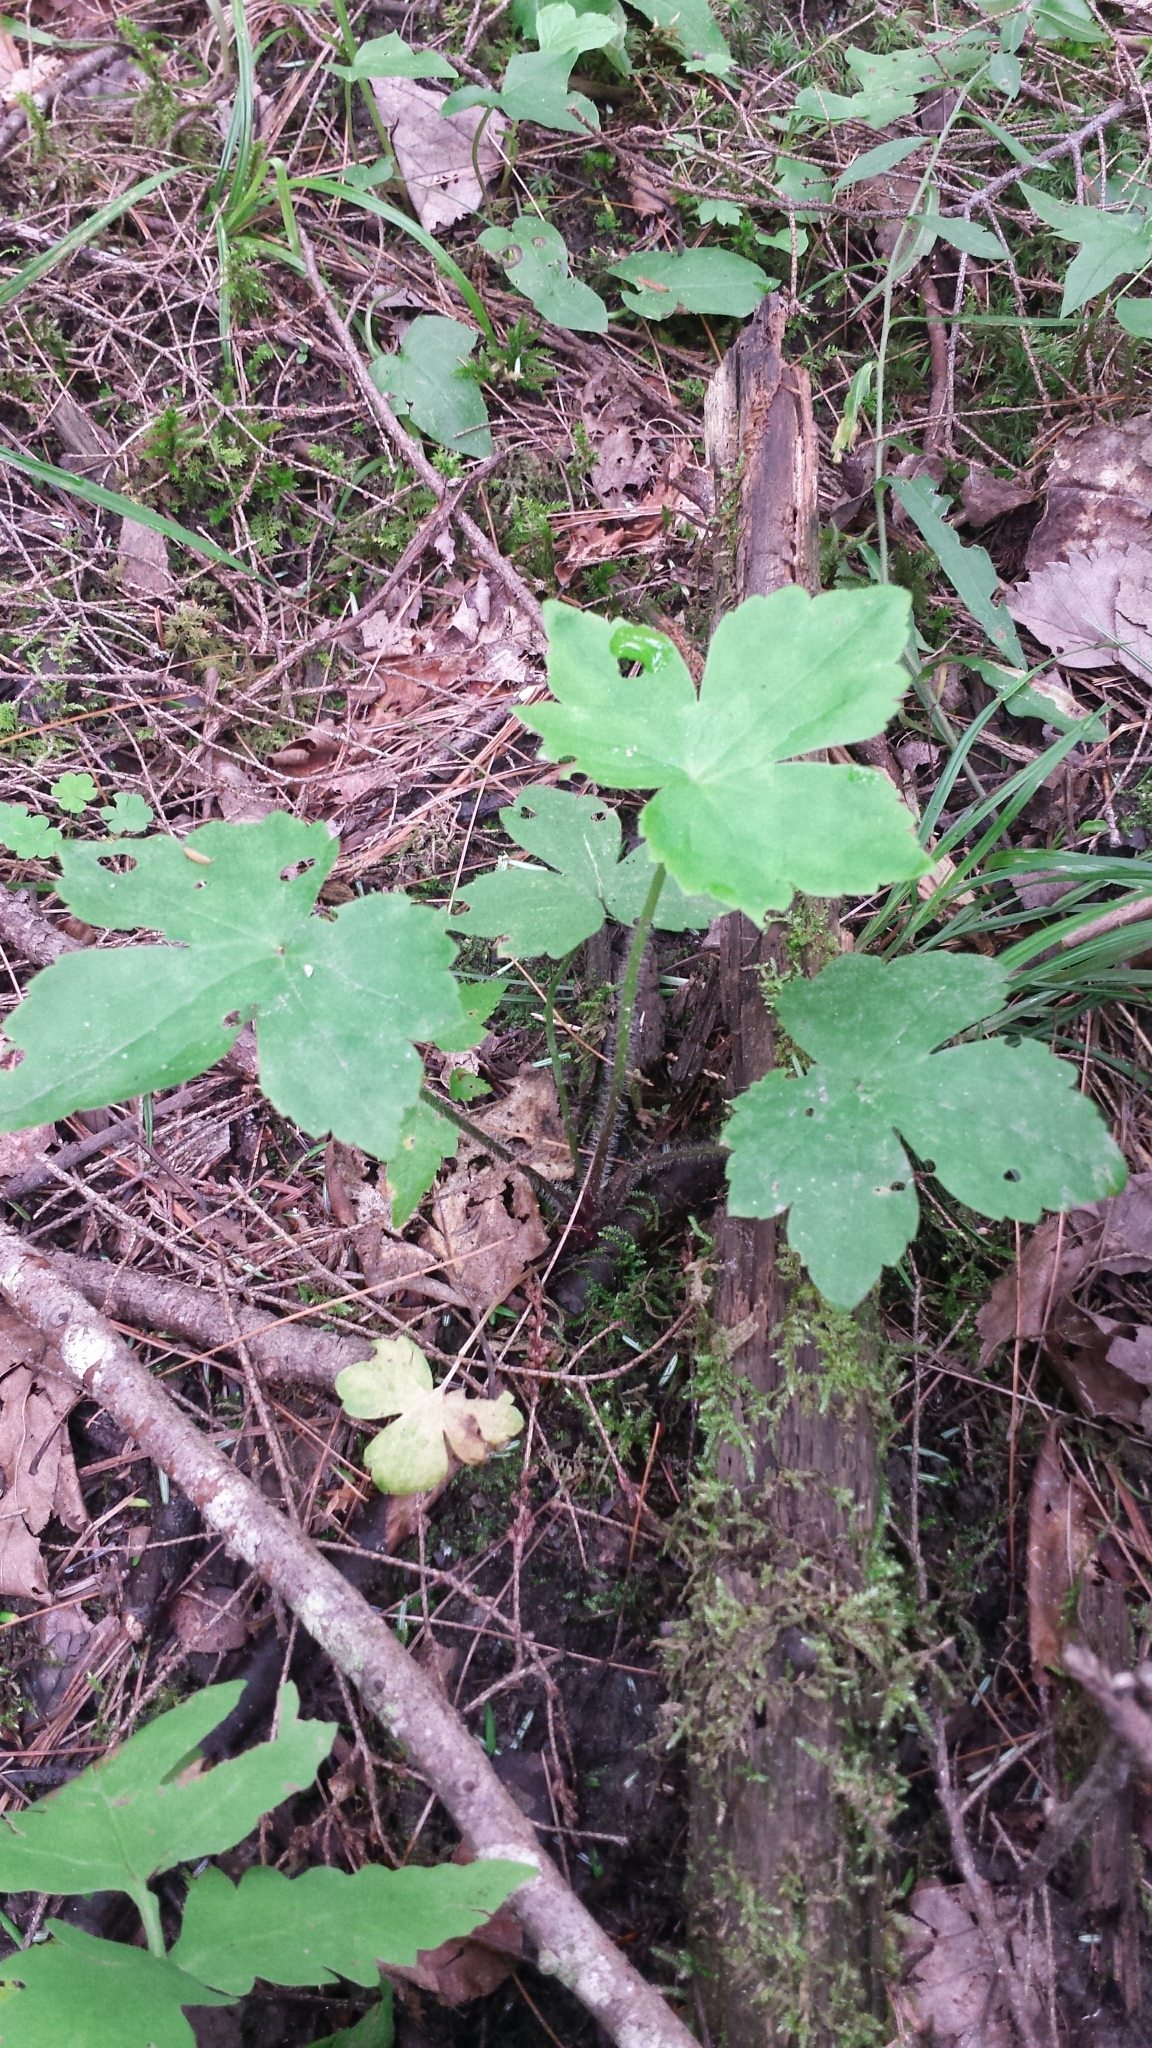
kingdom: Plantae
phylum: Tracheophyta
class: Magnoliopsida
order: Ranunculales
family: Ranunculaceae
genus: Ranunculus
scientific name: Ranunculus recurvatus
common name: Blisterwort
